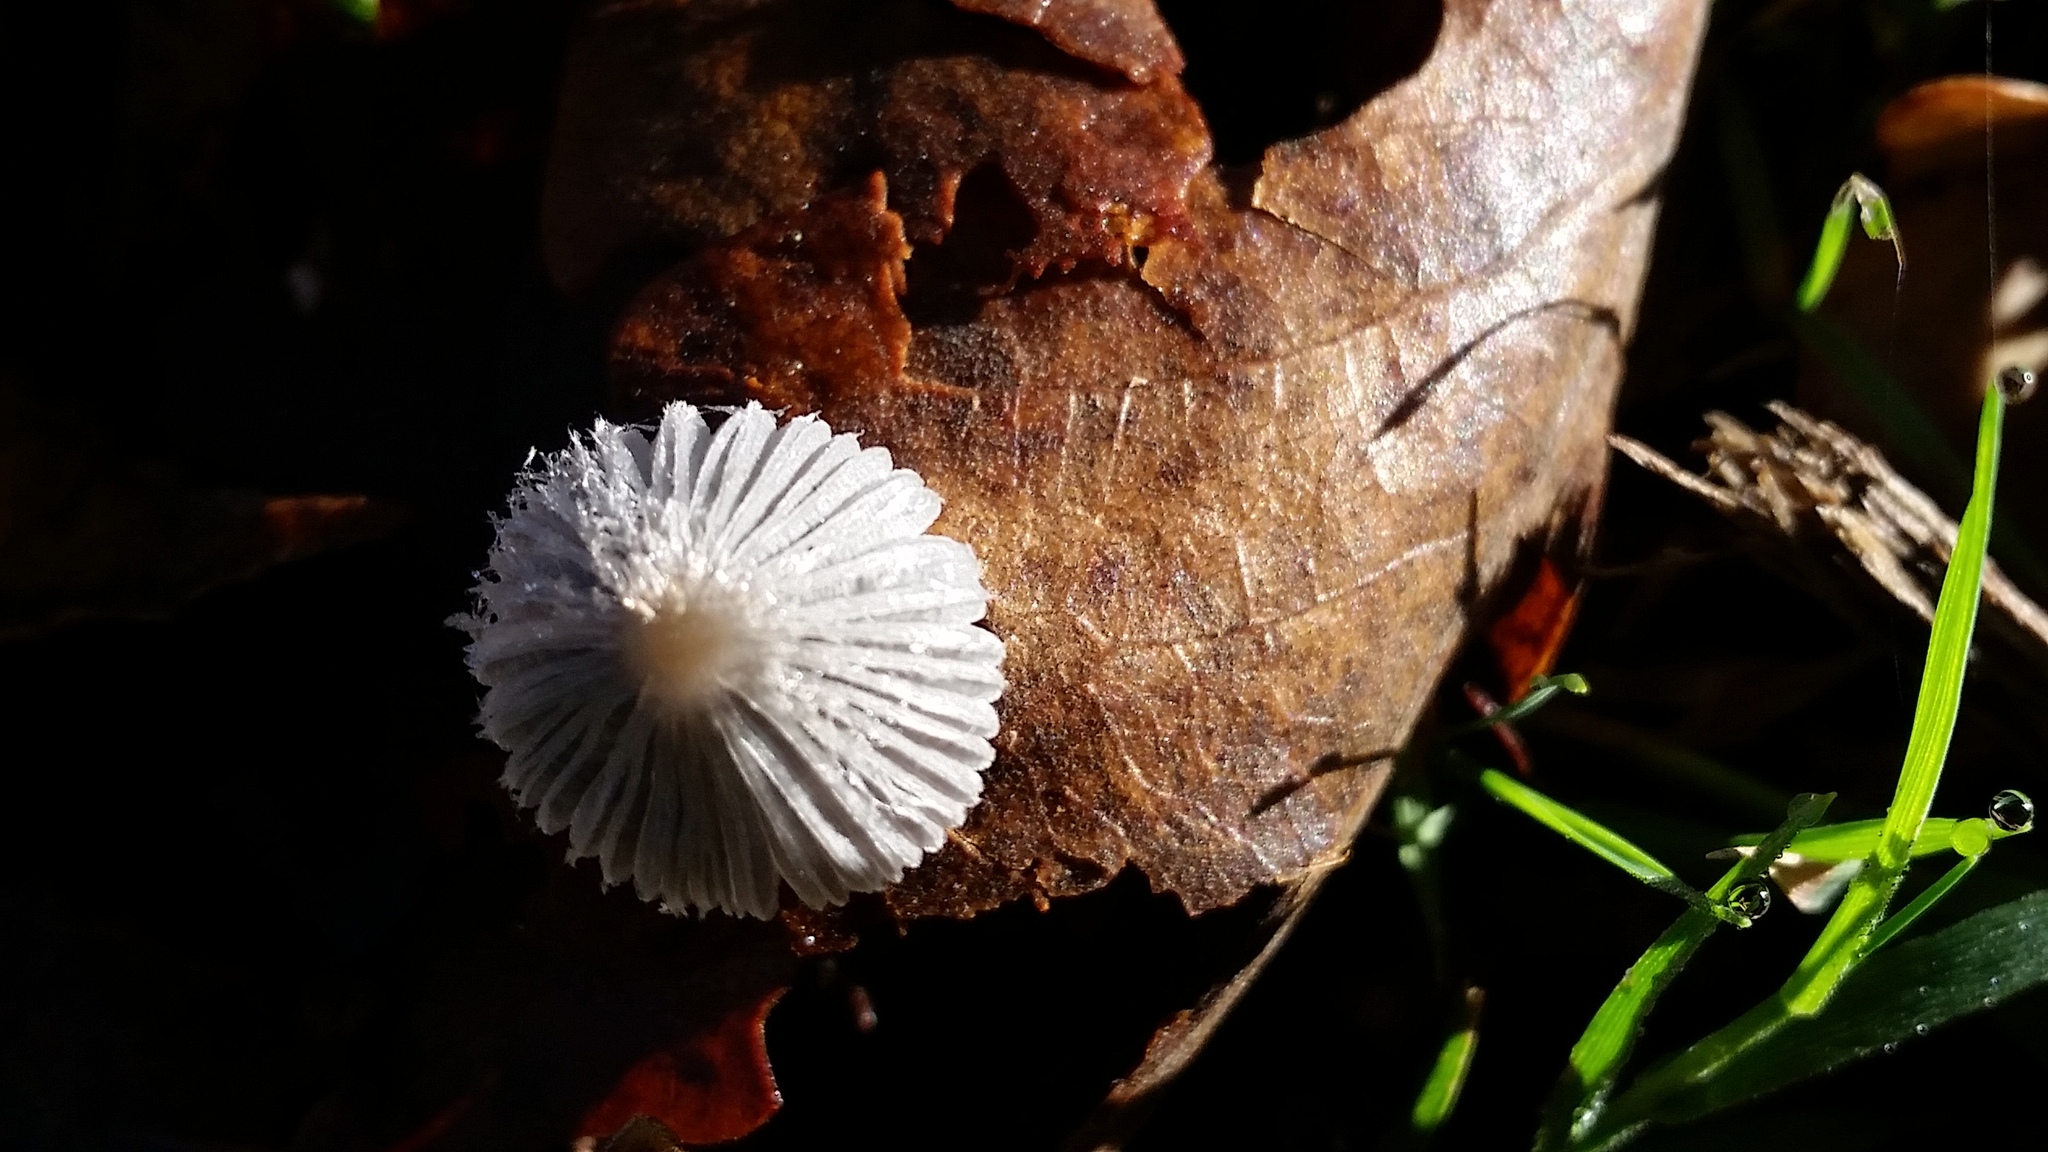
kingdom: Fungi
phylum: Basidiomycota
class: Agaricomycetes
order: Agaricales
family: Psathyrellaceae
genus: Coprinopsis
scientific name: Coprinopsis lagopus
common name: Hare'sfoot inkcap
